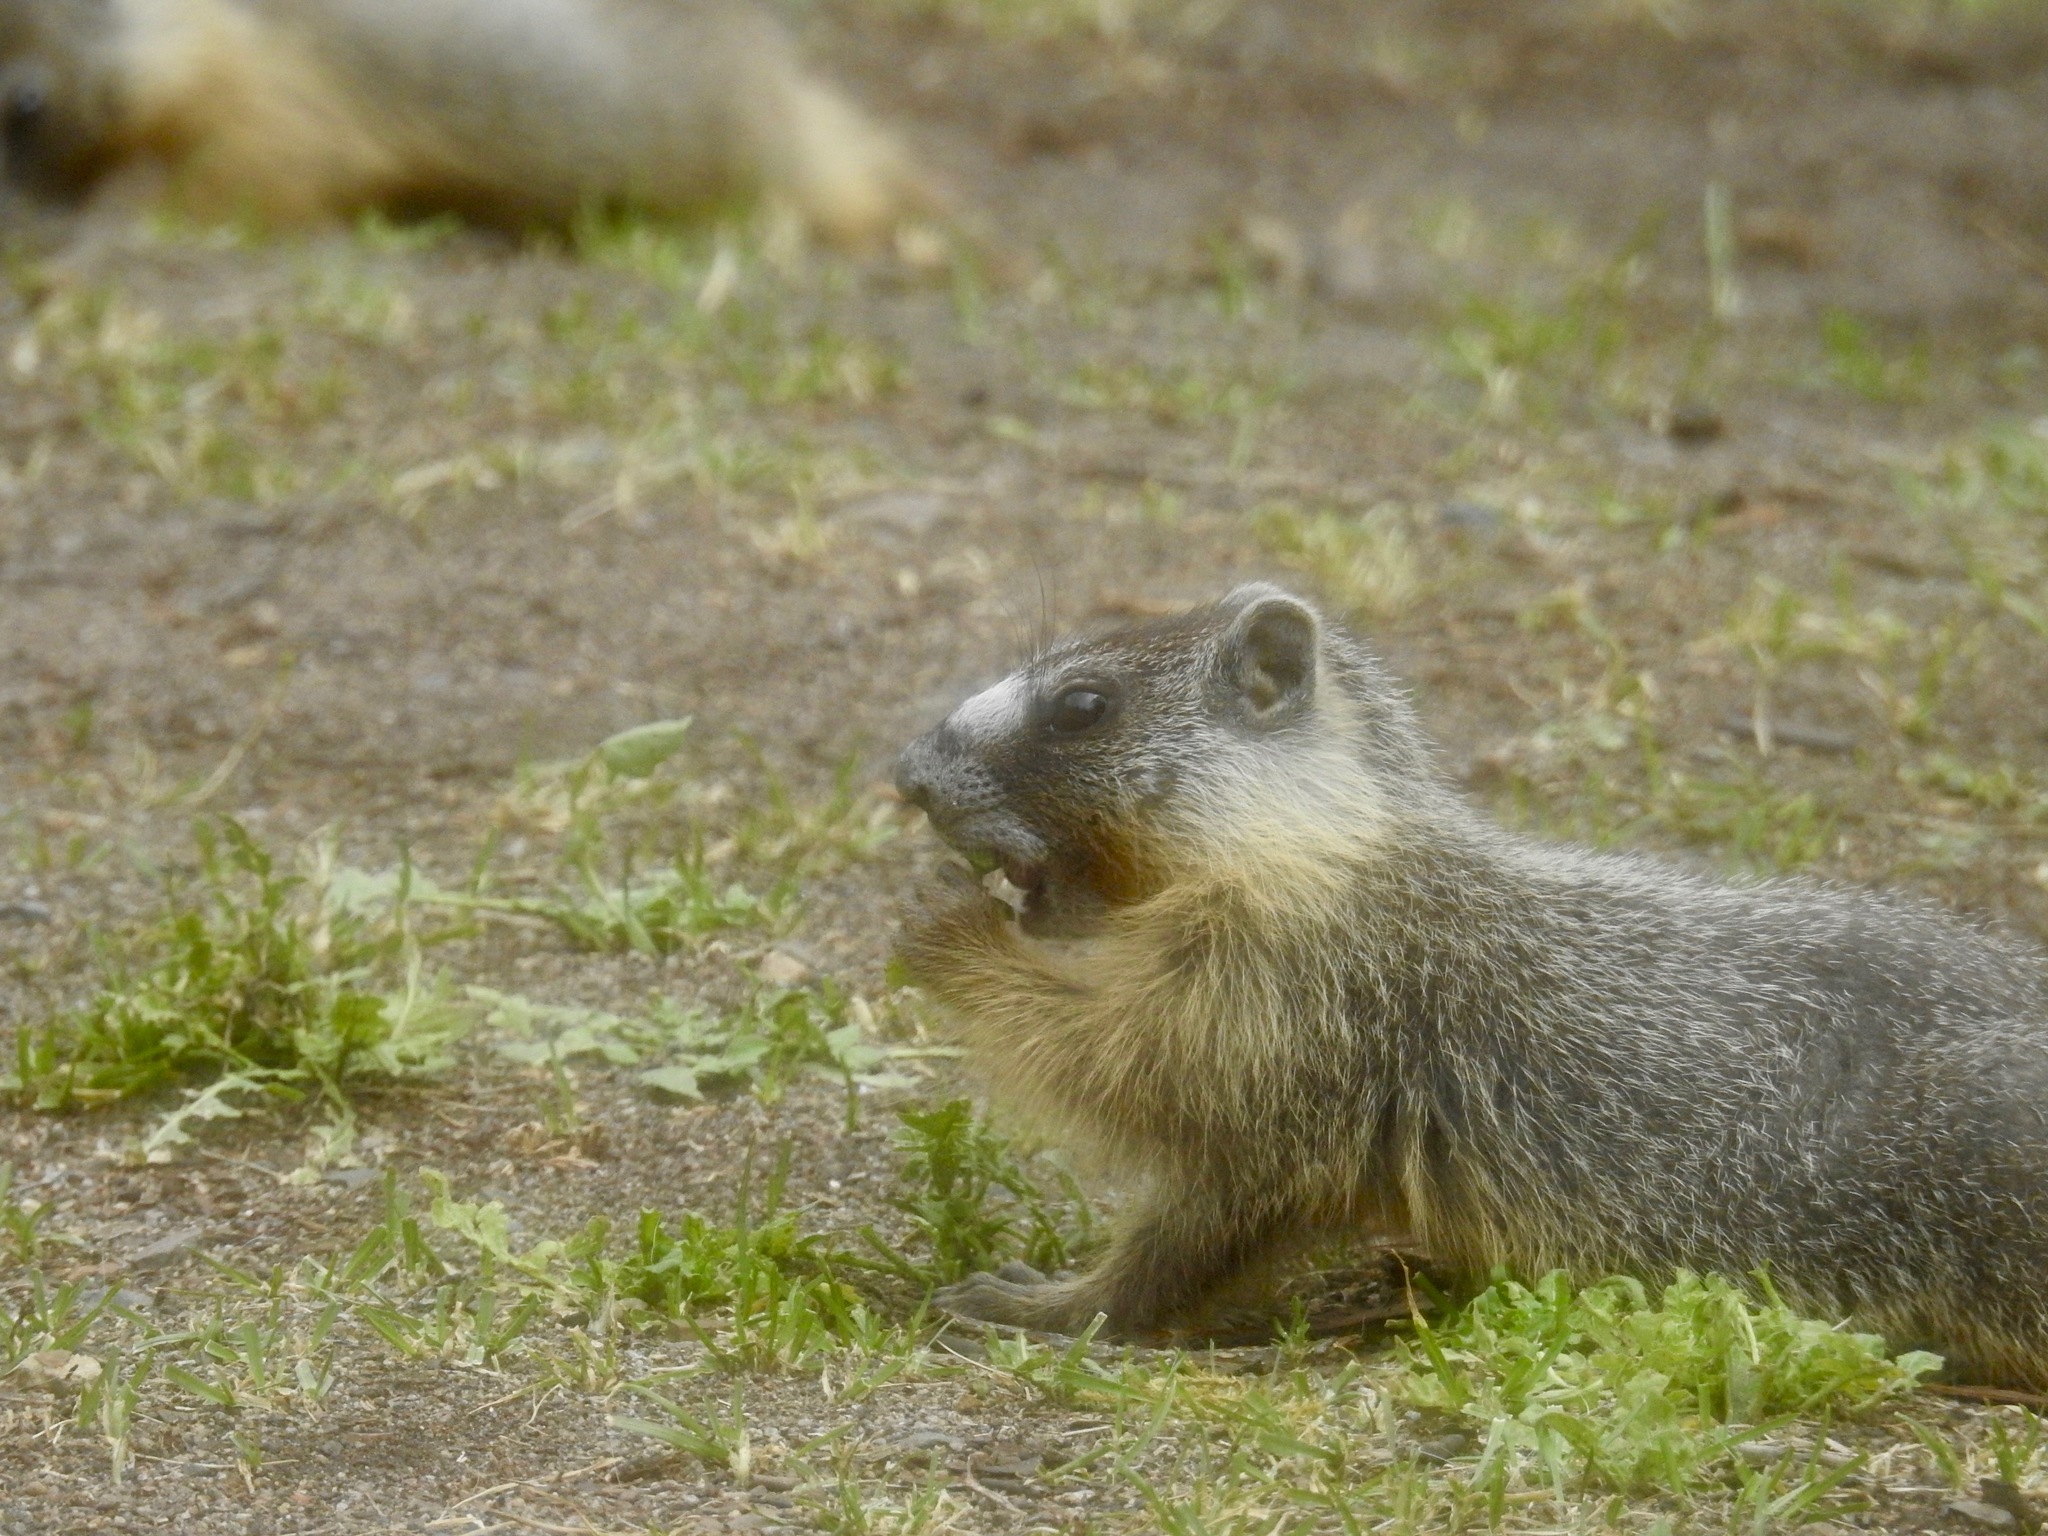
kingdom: Animalia
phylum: Chordata
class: Mammalia
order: Rodentia
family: Sciuridae
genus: Marmota
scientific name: Marmota flaviventris
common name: Yellow-bellied marmot
